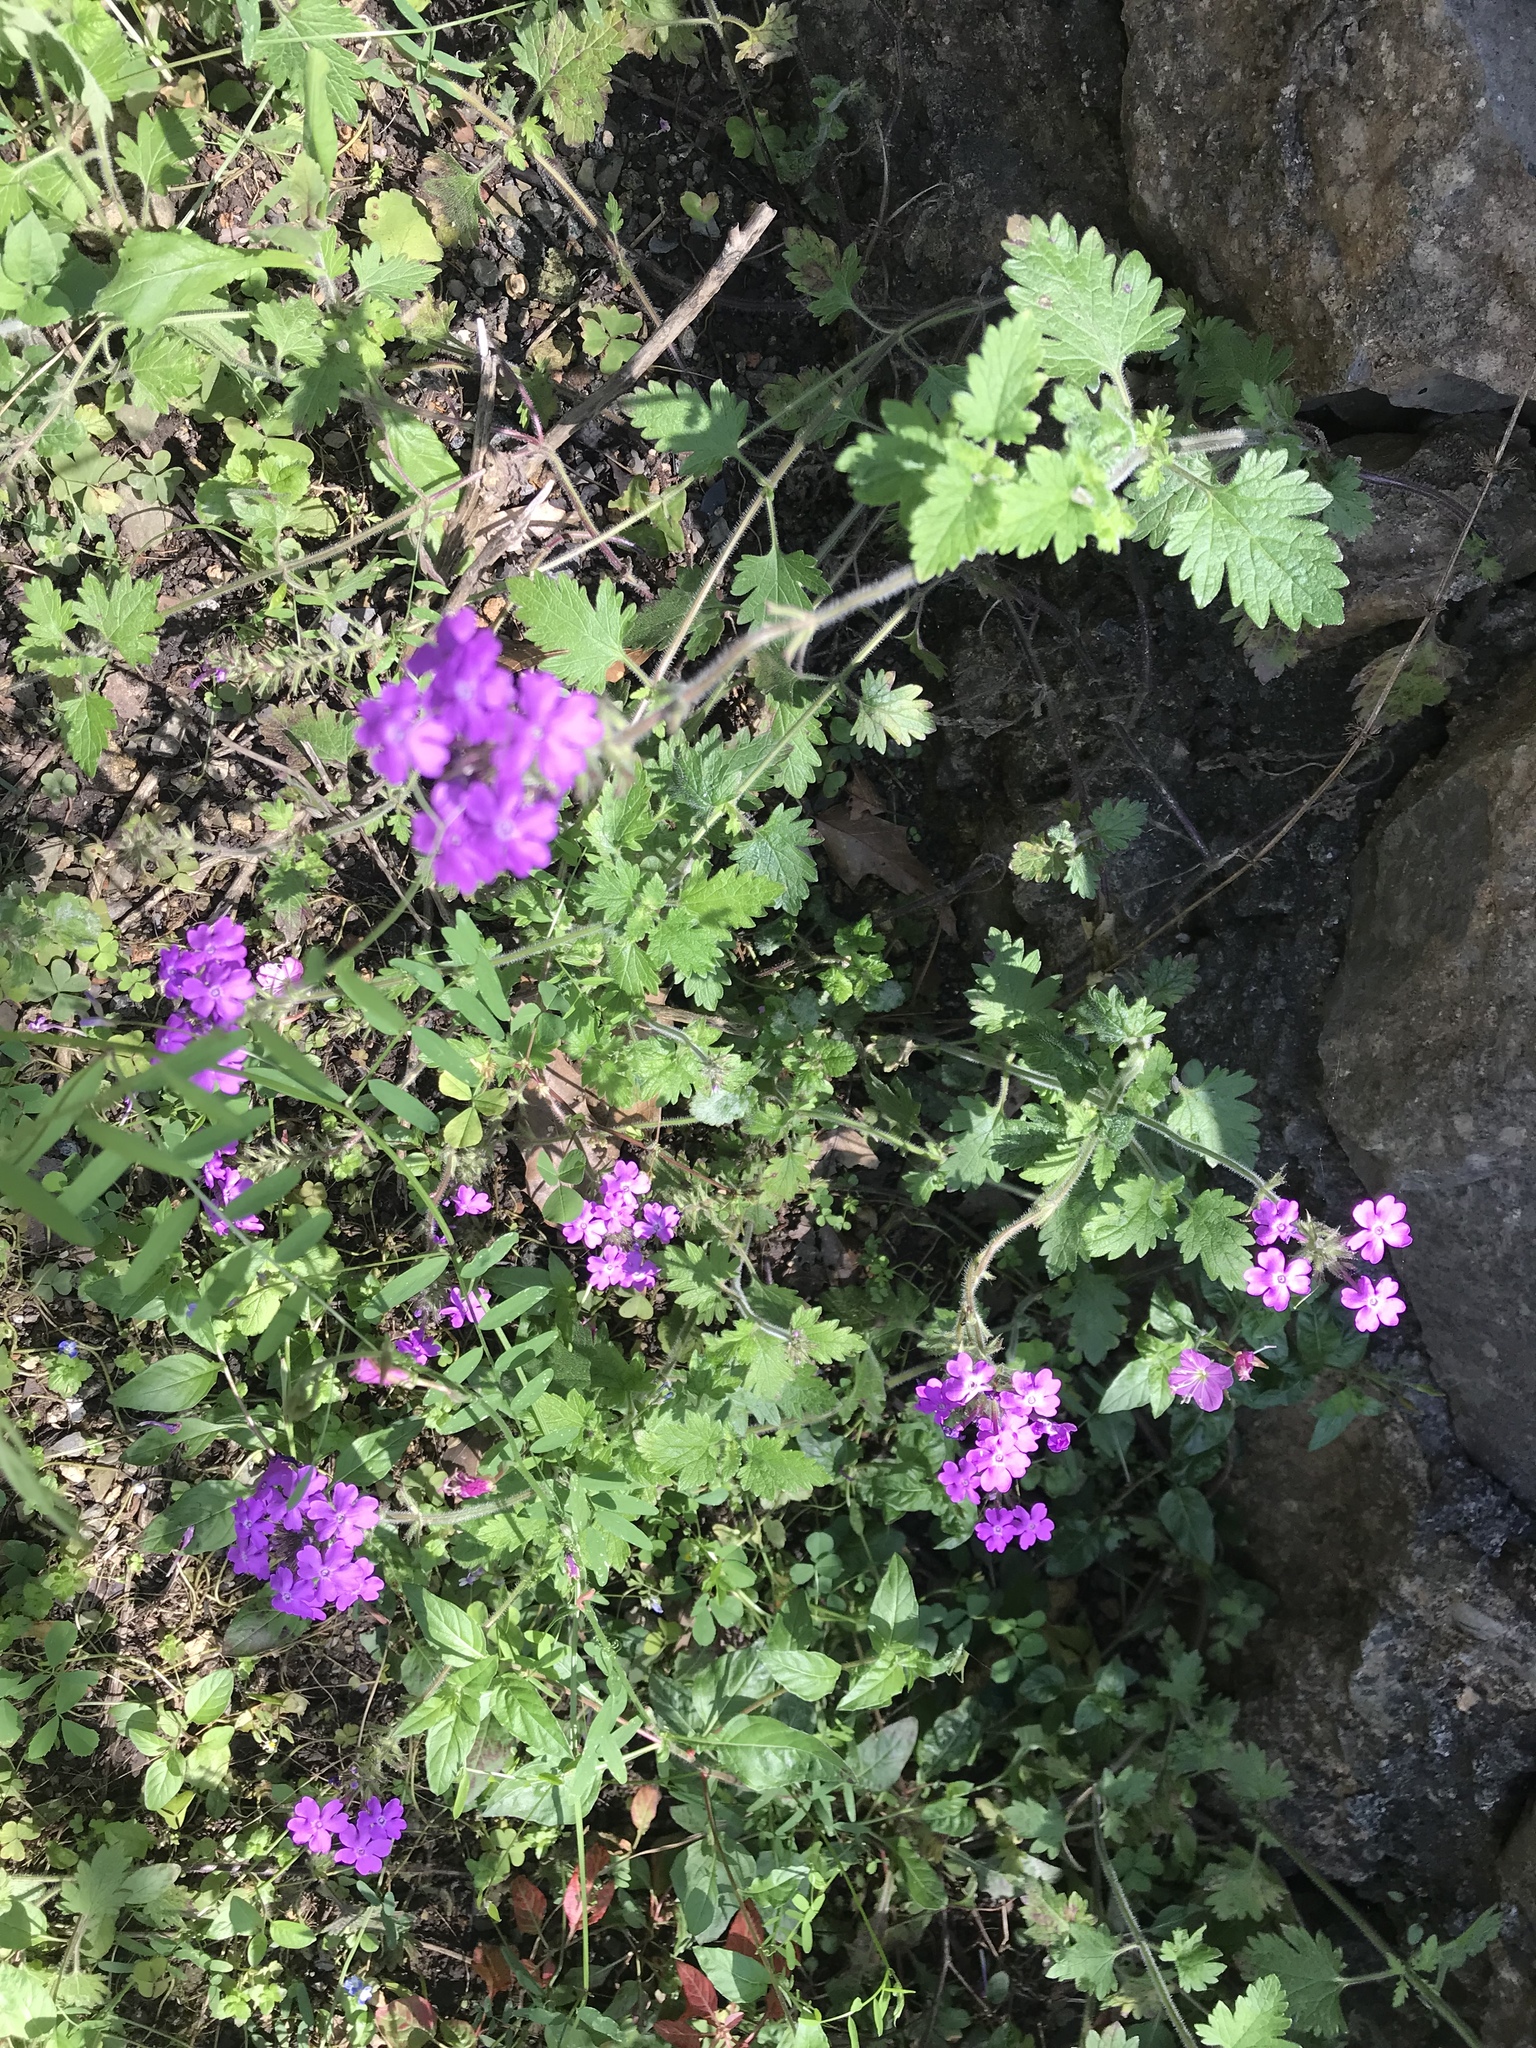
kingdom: Plantae
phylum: Tracheophyta
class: Magnoliopsida
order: Lamiales
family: Verbenaceae
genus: Verbena
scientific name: Verbena canadensis
